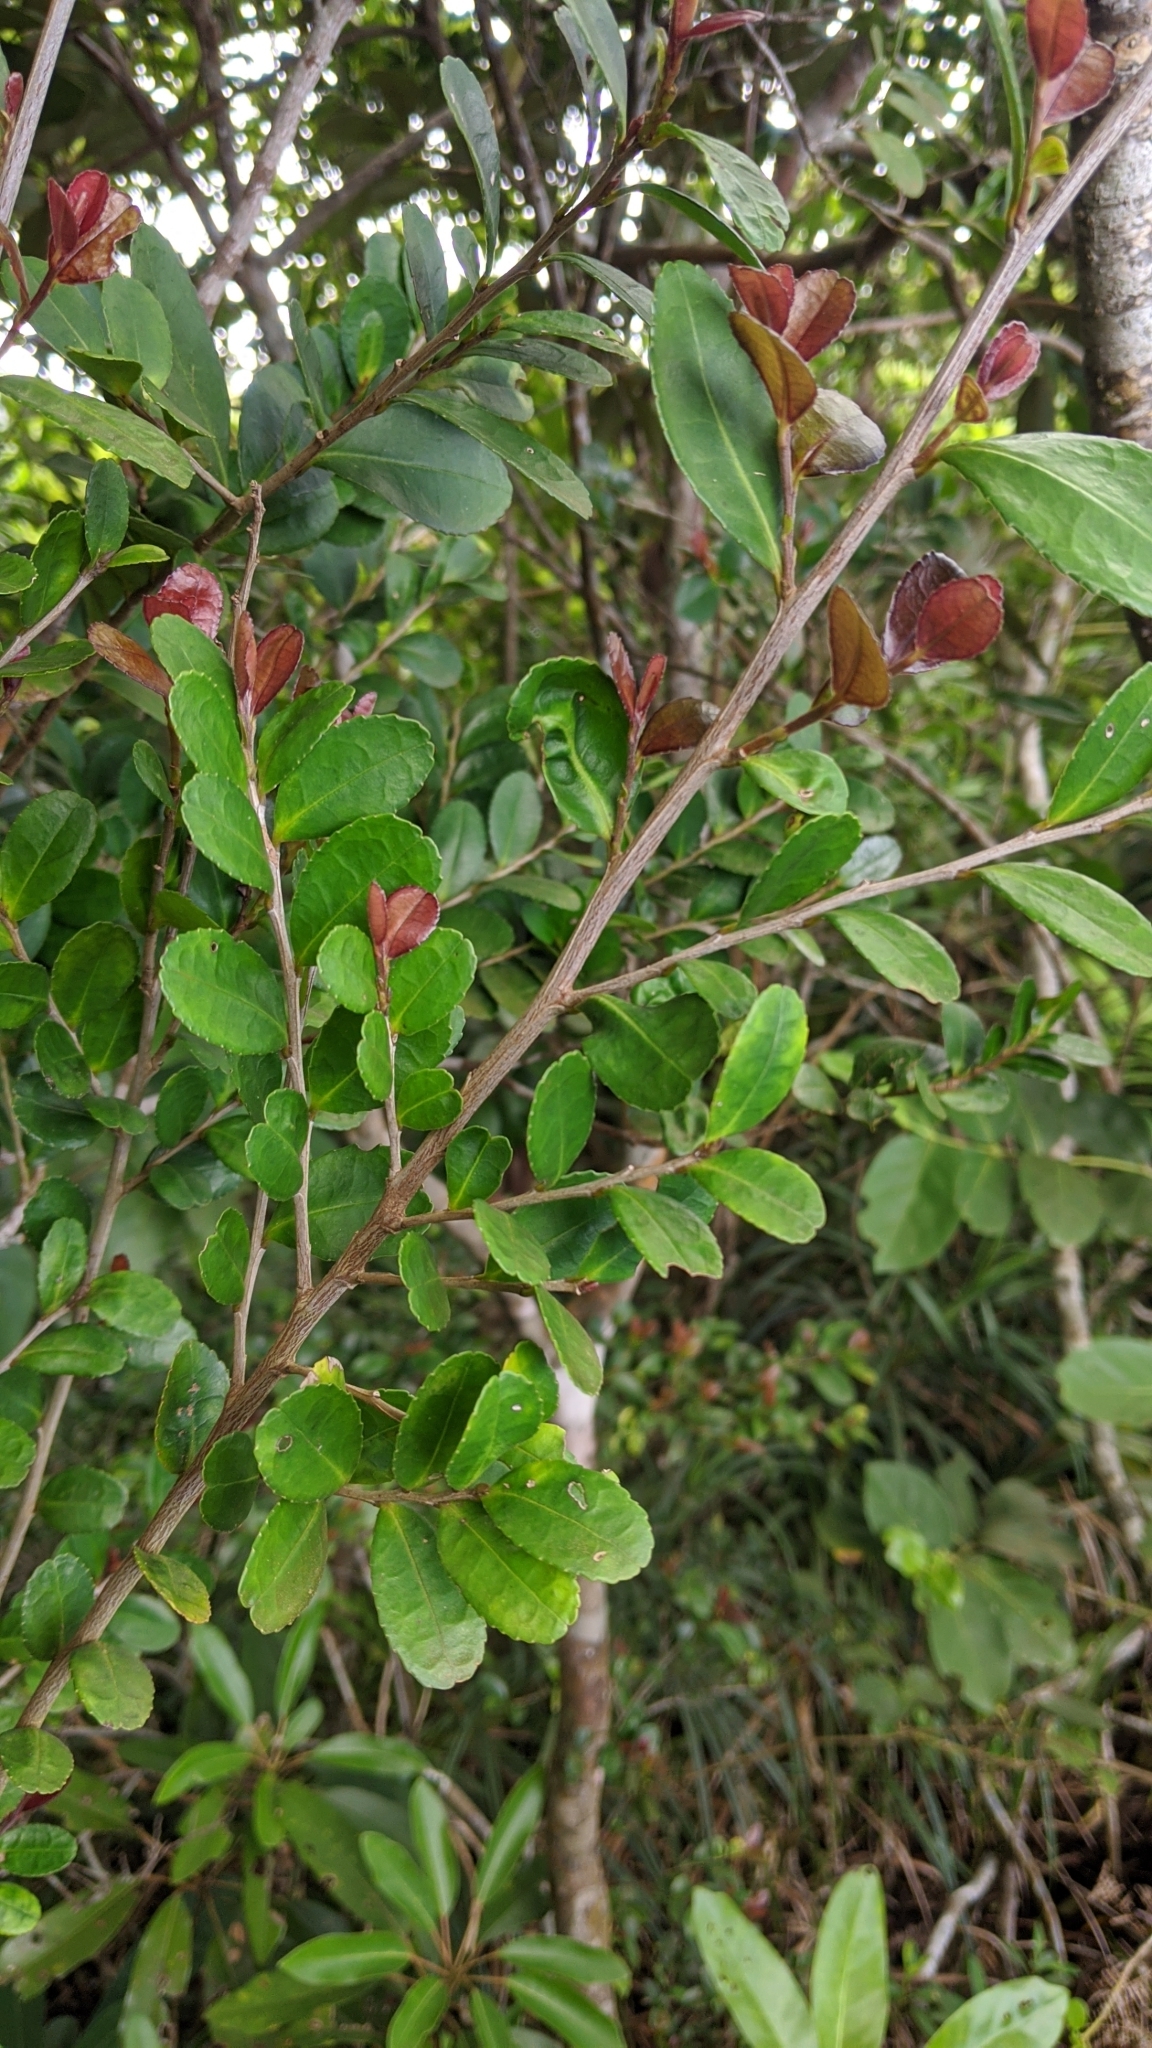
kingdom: Plantae
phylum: Tracheophyta
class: Magnoliopsida
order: Ericales
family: Pentaphylacaceae
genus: Eurya
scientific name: Eurya emarginata
